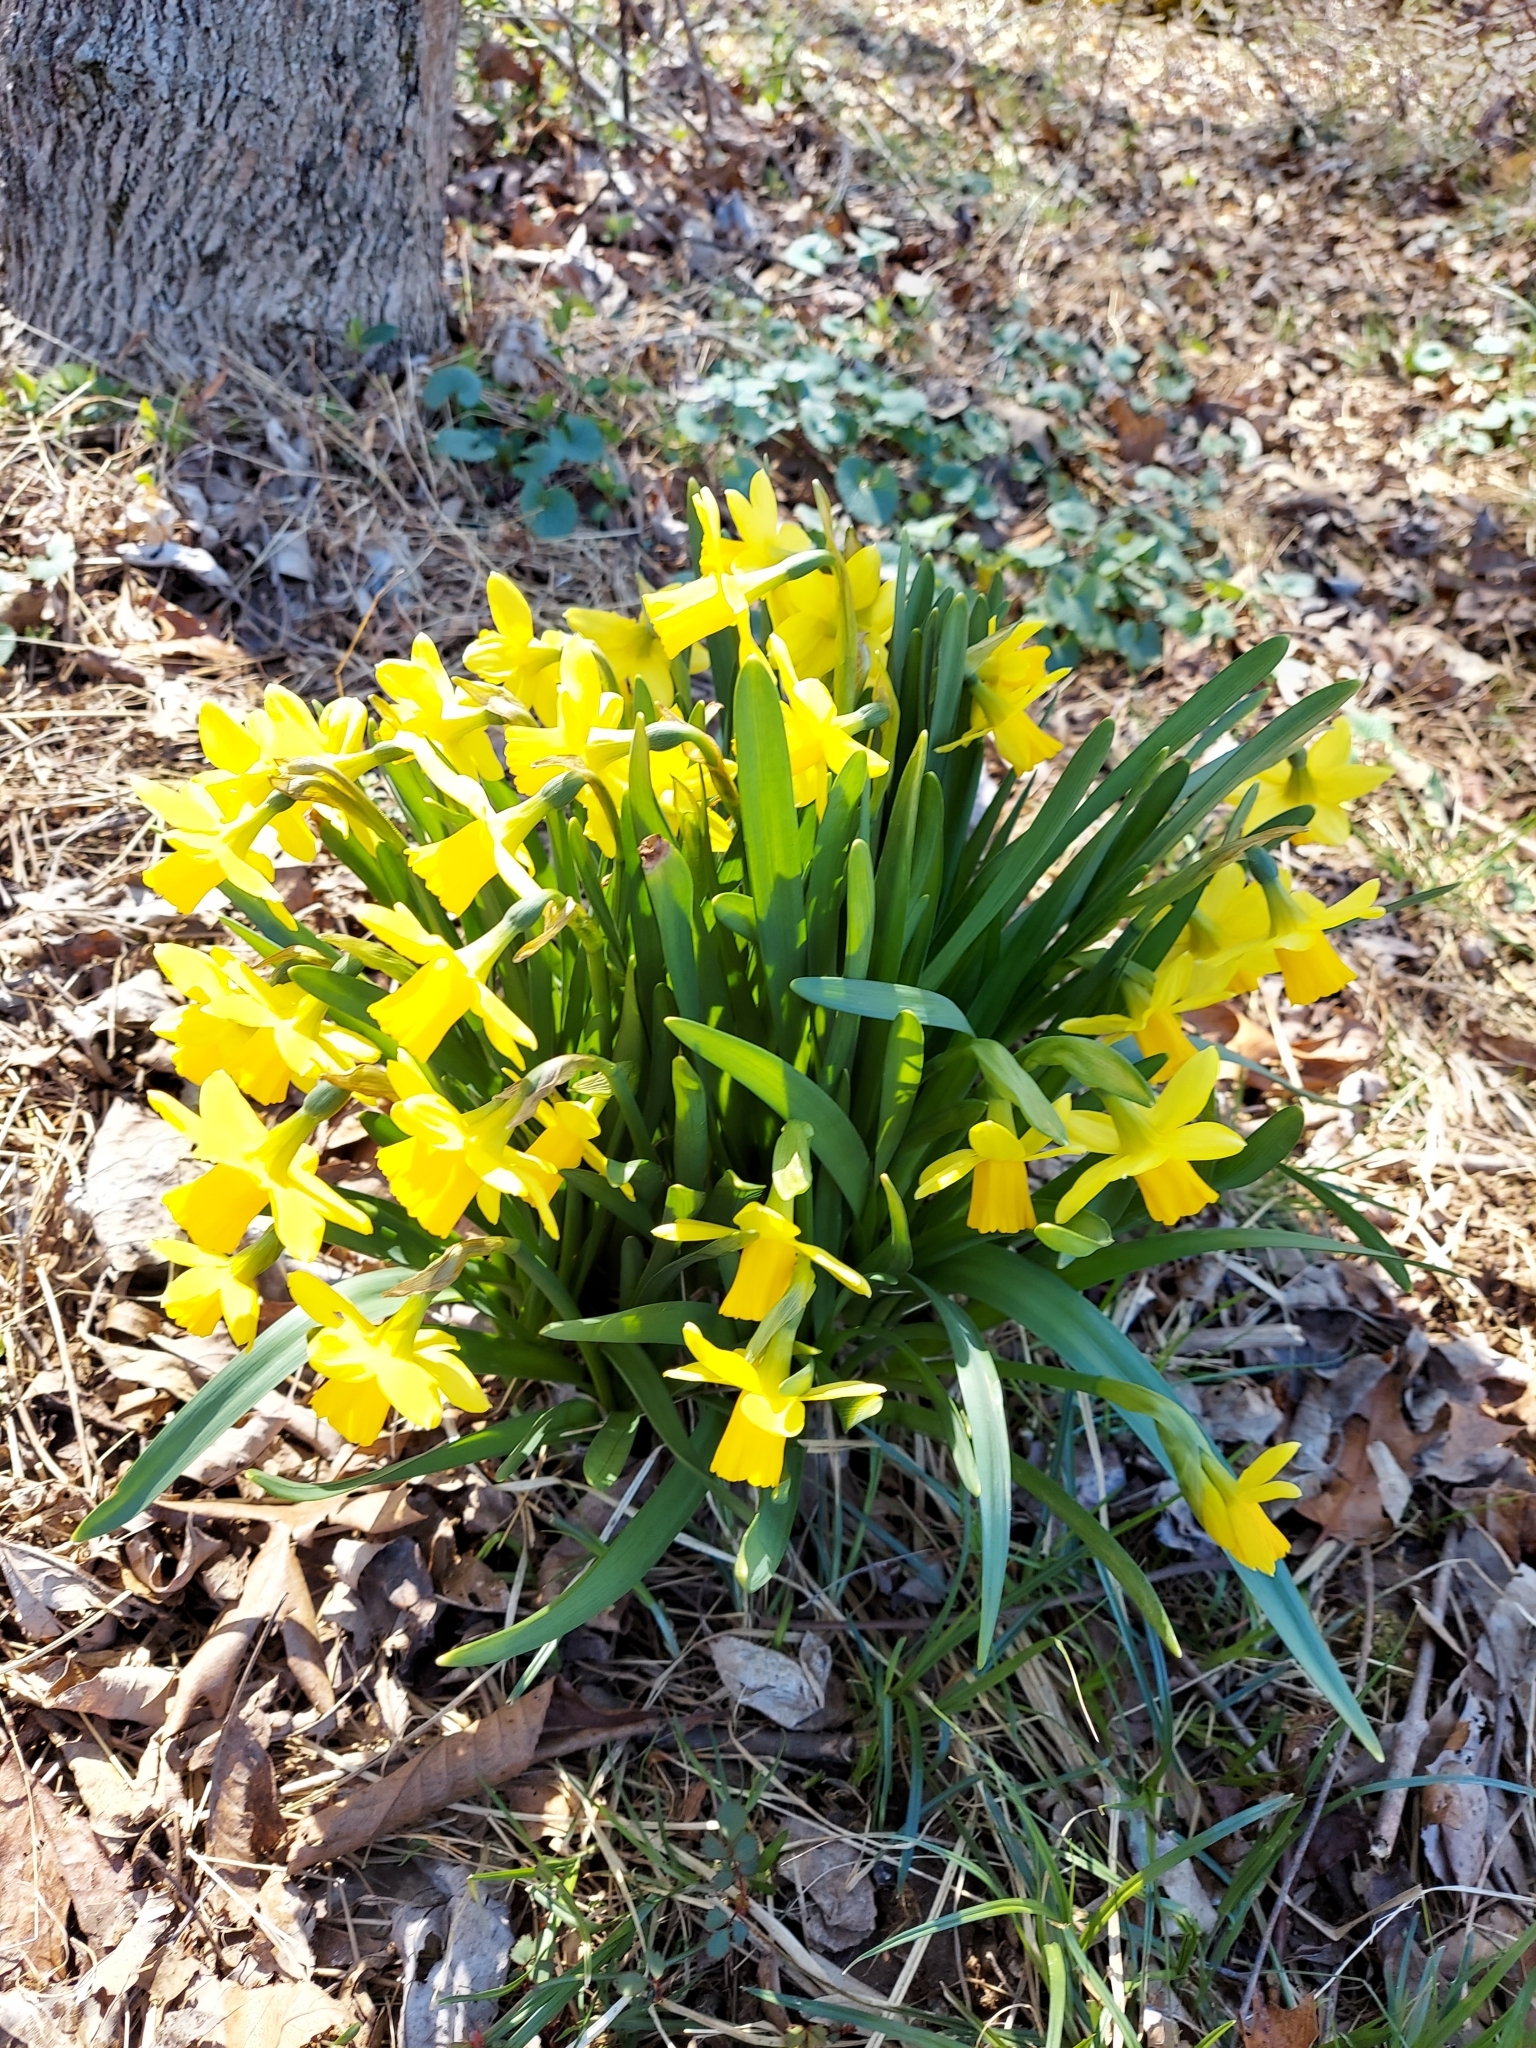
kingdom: Plantae
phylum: Tracheophyta
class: Liliopsida
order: Asparagales
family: Amaryllidaceae
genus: Narcissus
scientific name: Narcissus pseudonarcissus
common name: Daffodil
